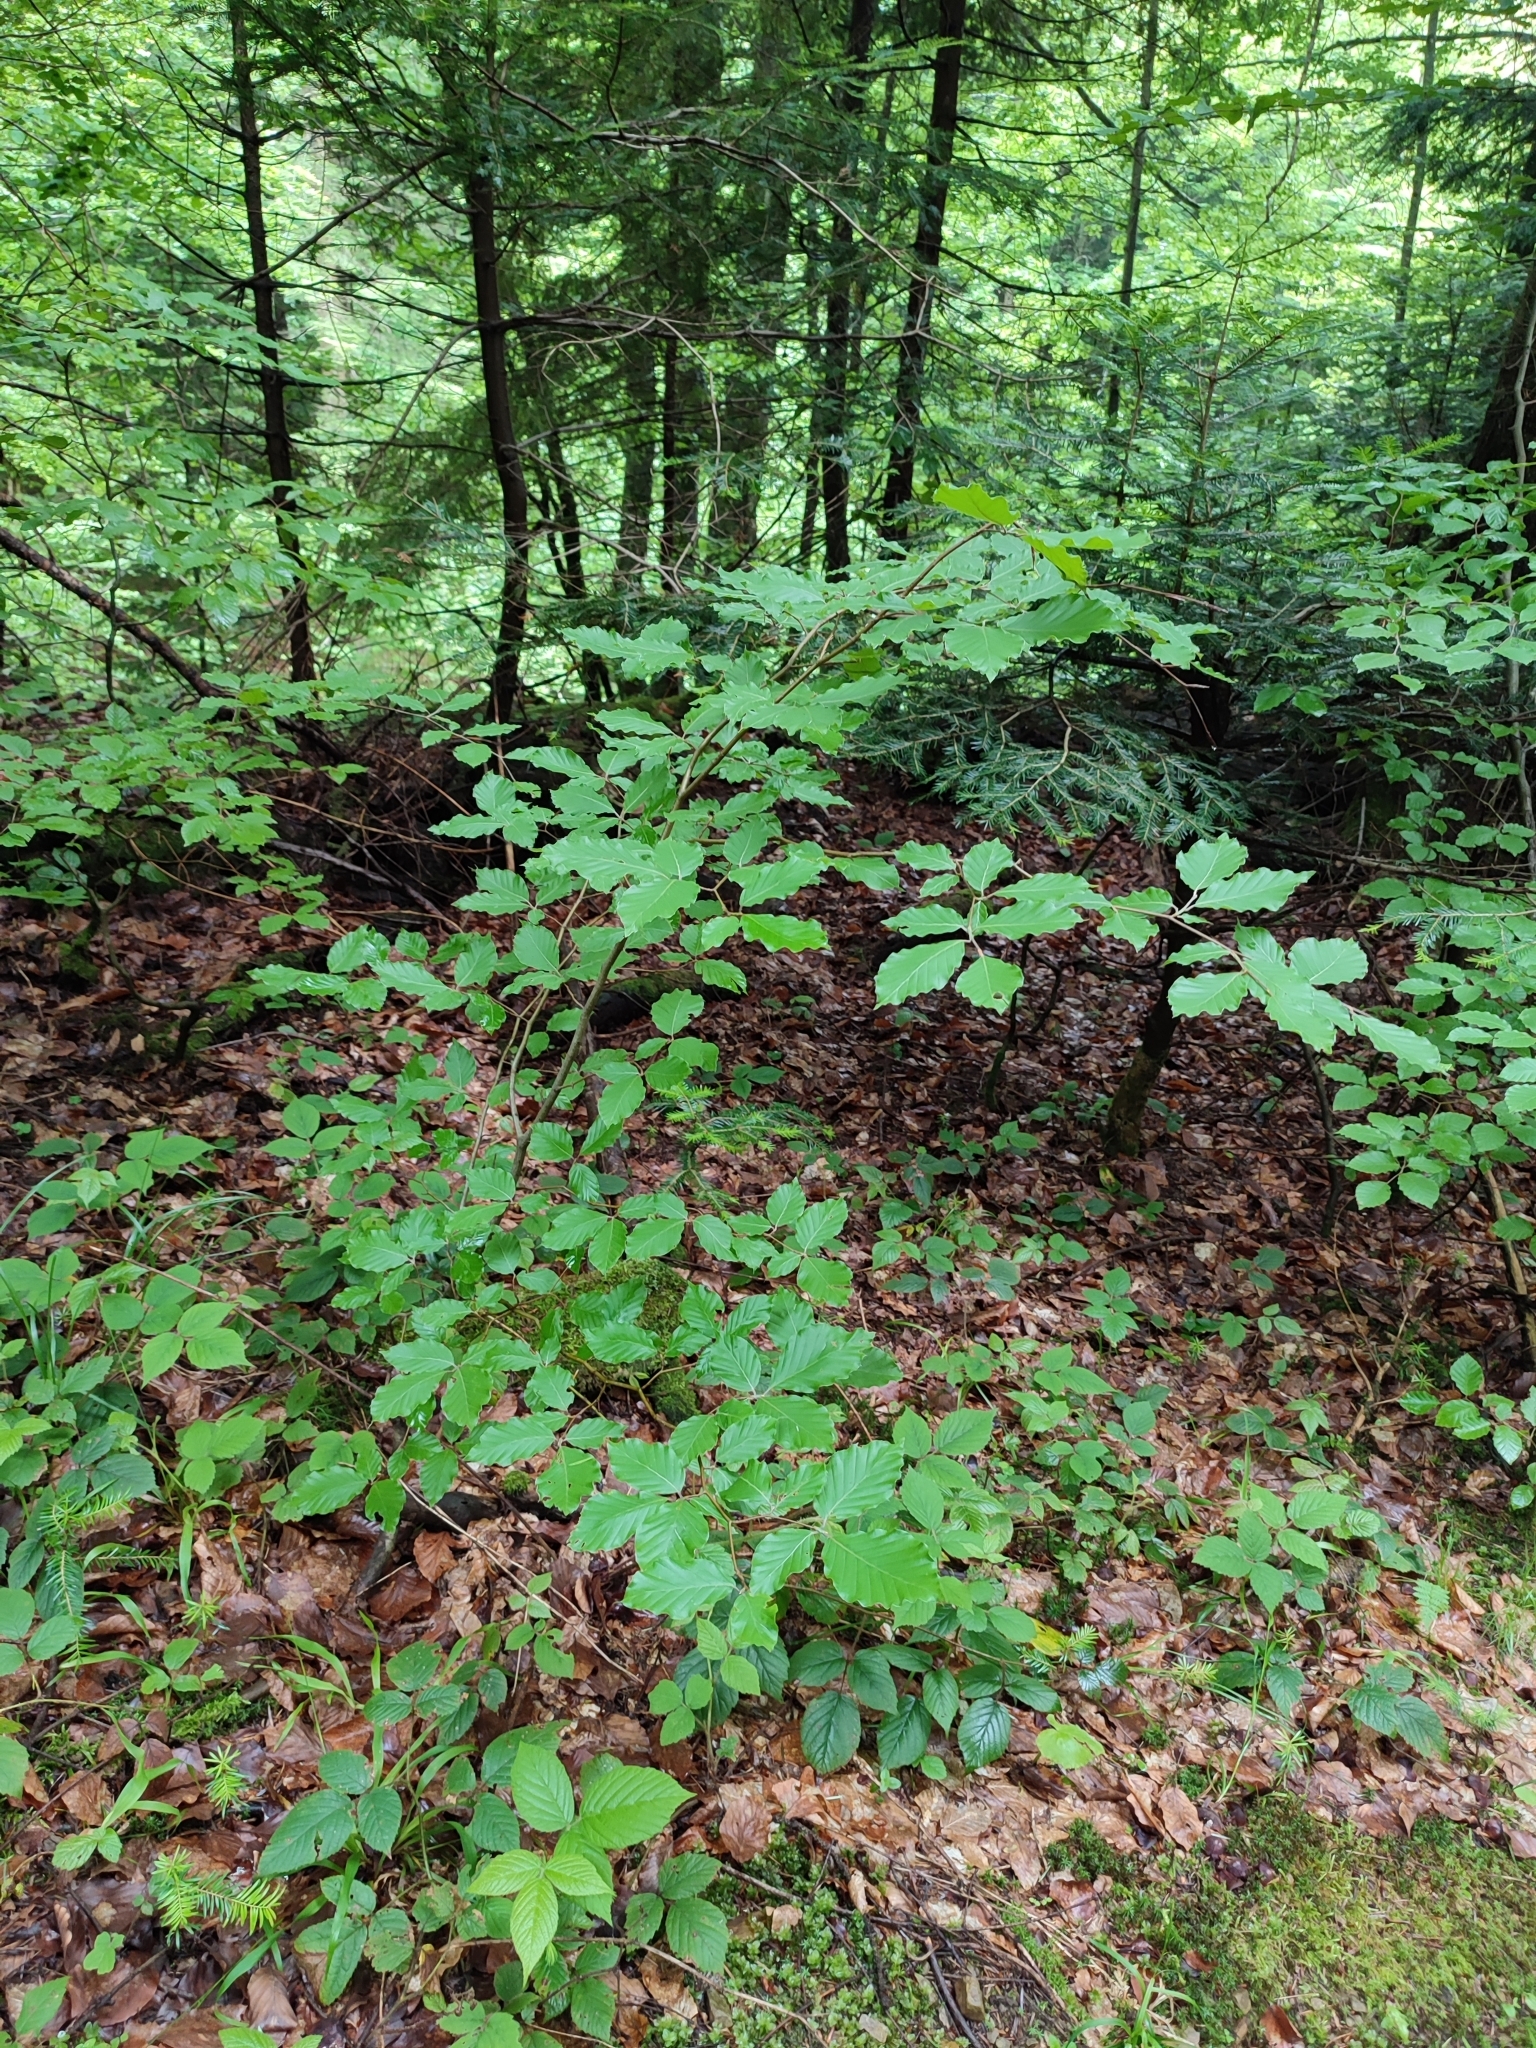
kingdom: Plantae
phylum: Tracheophyta
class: Magnoliopsida
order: Fagales
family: Fagaceae
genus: Fagus
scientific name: Fagus sylvatica
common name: Beech
